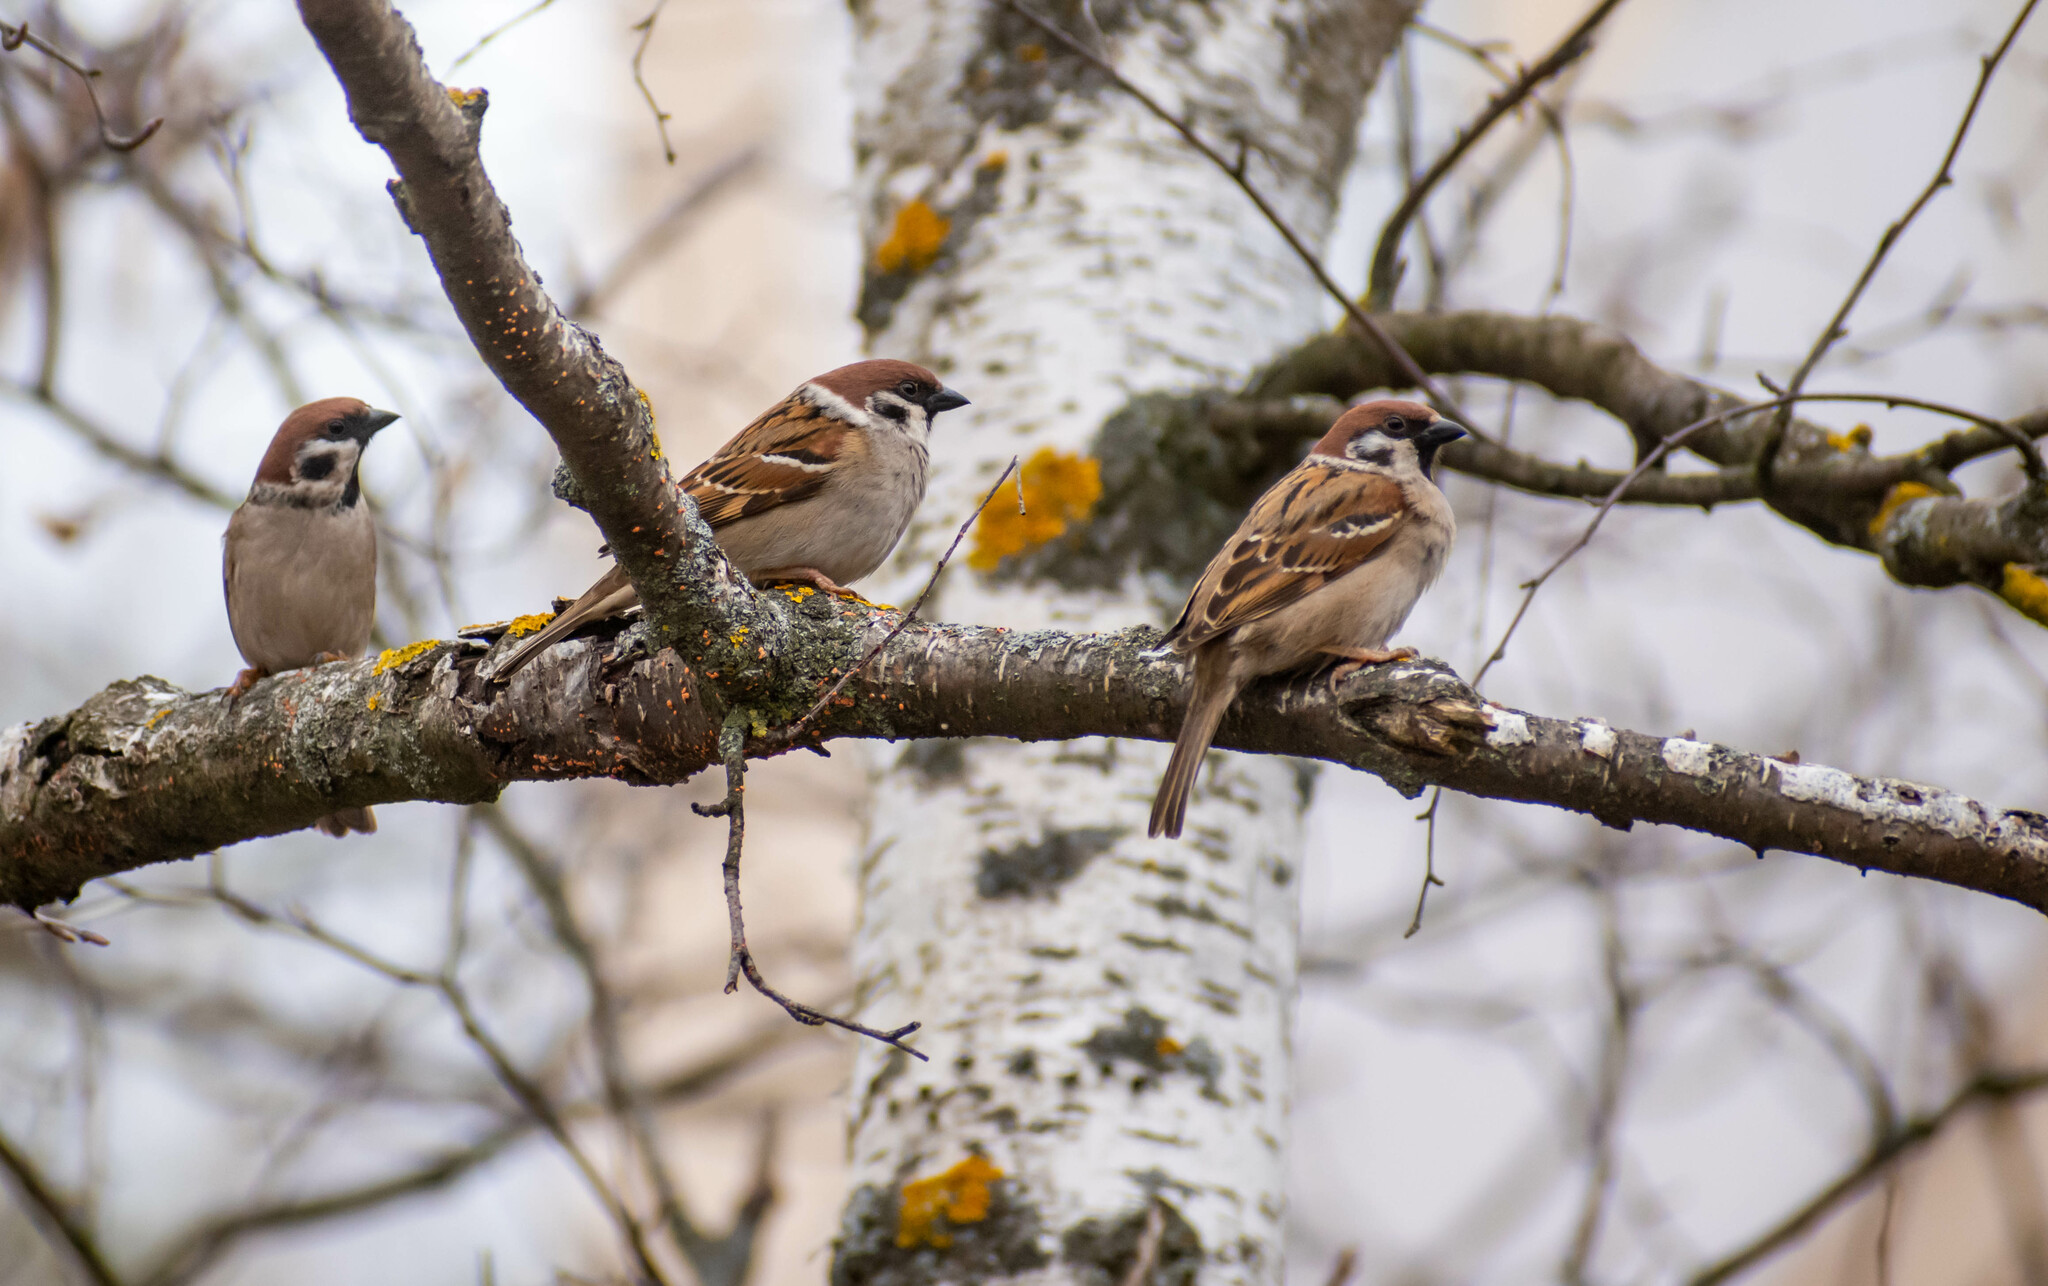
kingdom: Animalia
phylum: Chordata
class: Aves
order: Passeriformes
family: Passeridae
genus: Passer
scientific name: Passer montanus
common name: Eurasian tree sparrow
